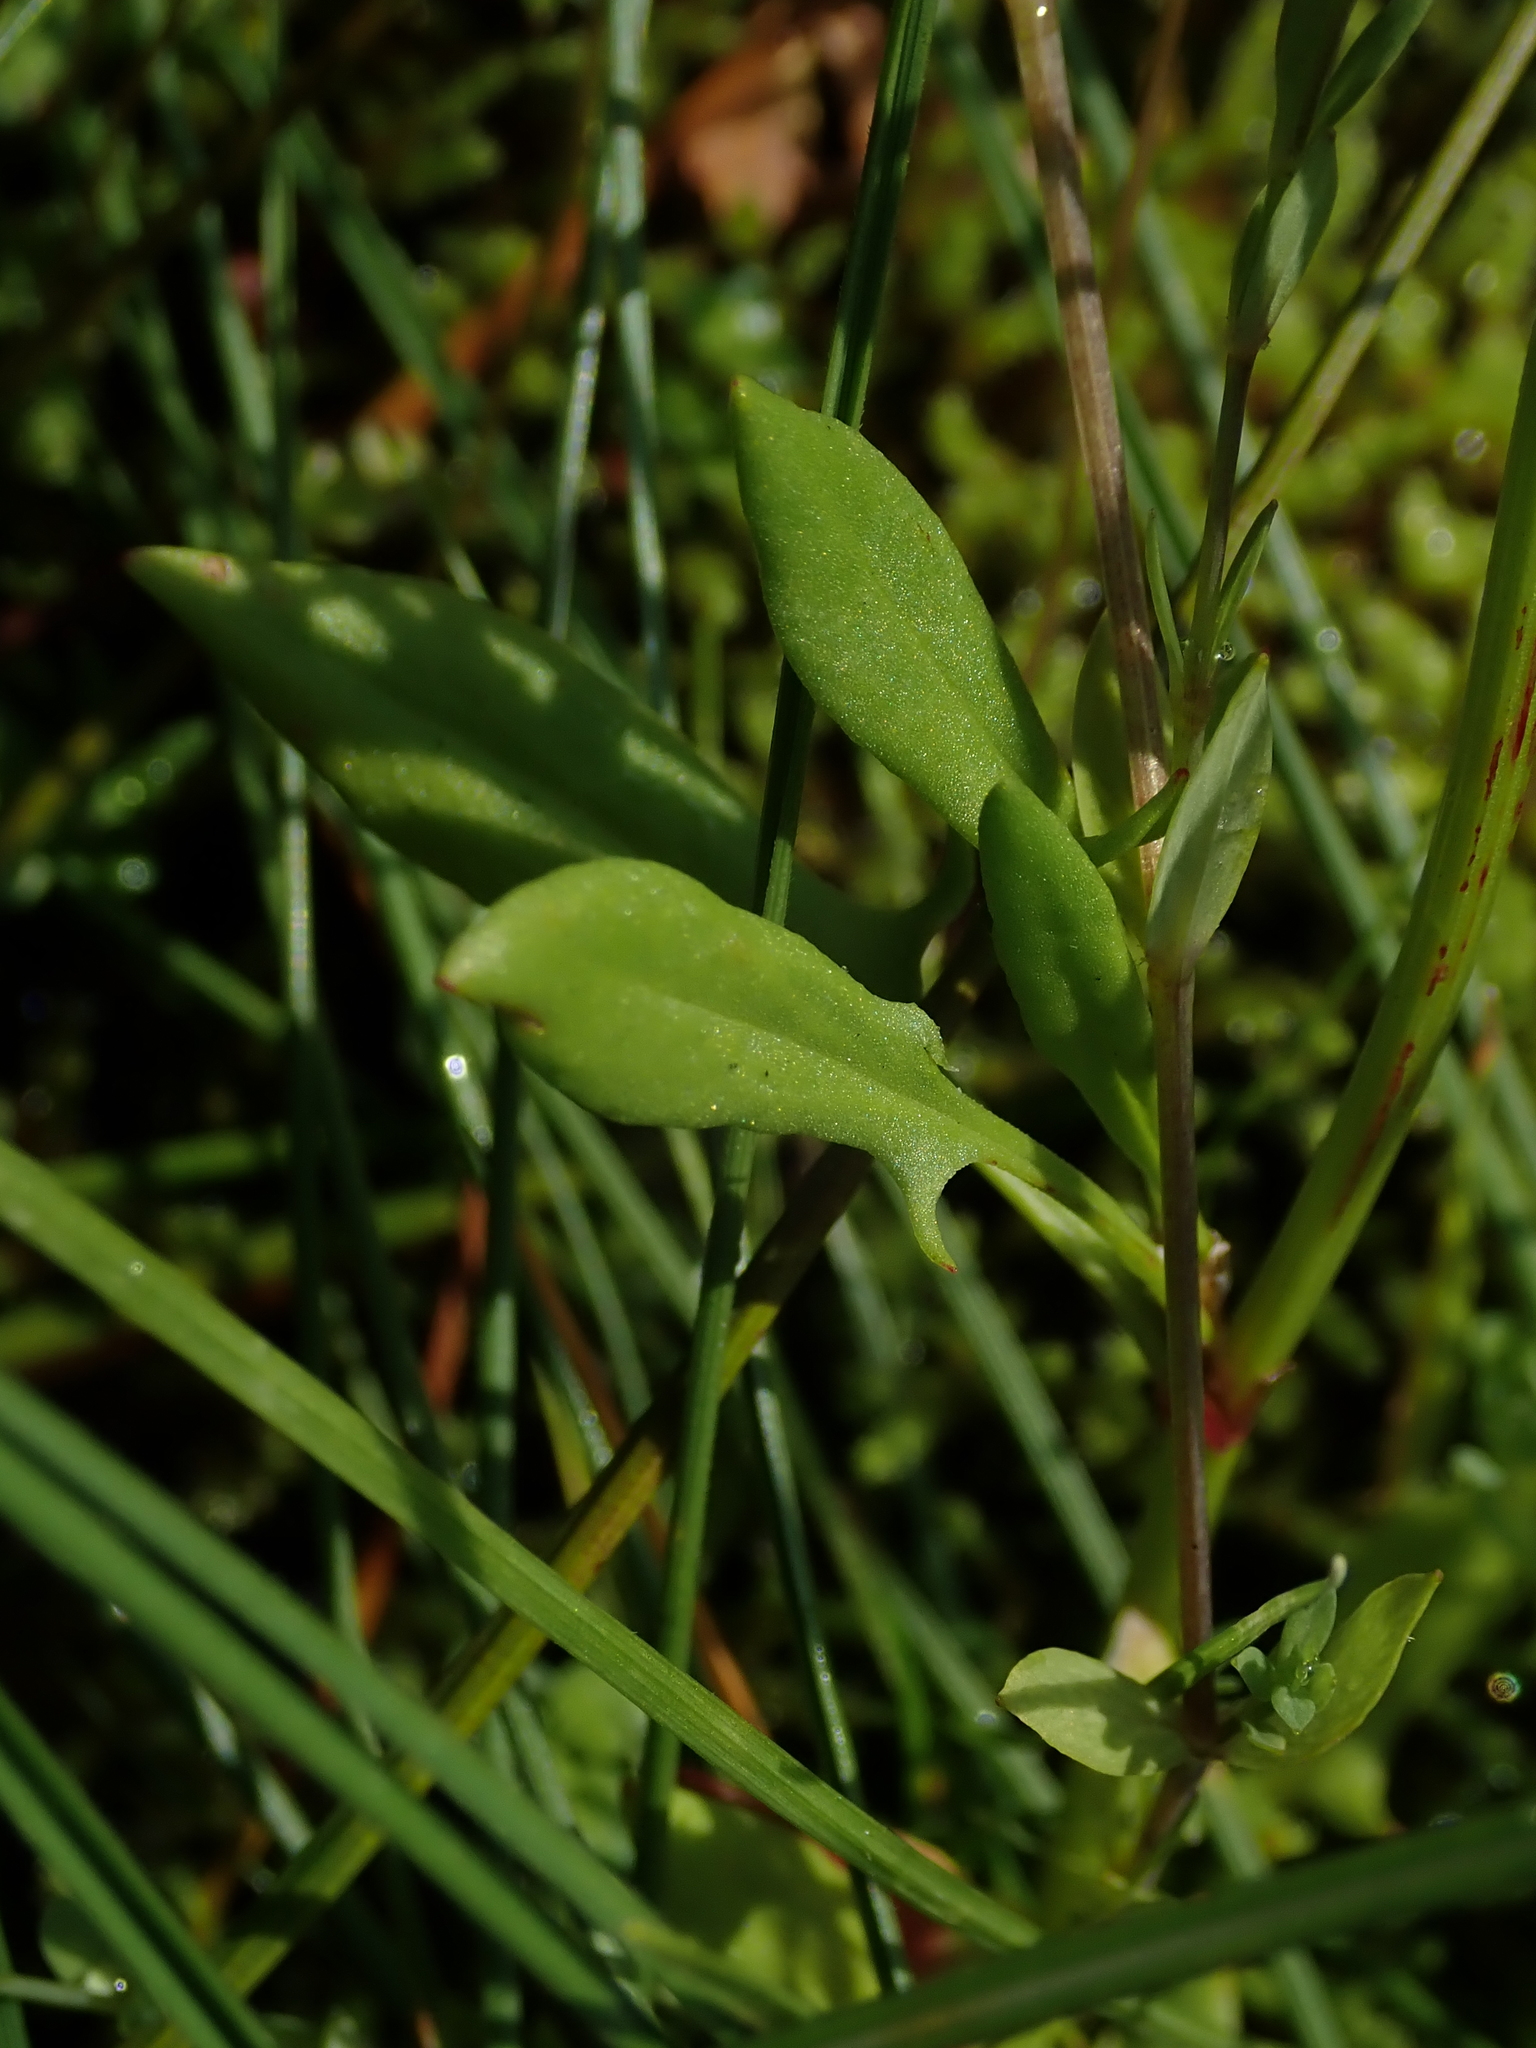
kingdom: Plantae
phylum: Tracheophyta
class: Magnoliopsida
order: Caryophyllales
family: Polygonaceae
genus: Rumex
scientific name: Rumex acetosella
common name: Common sheep sorrel
